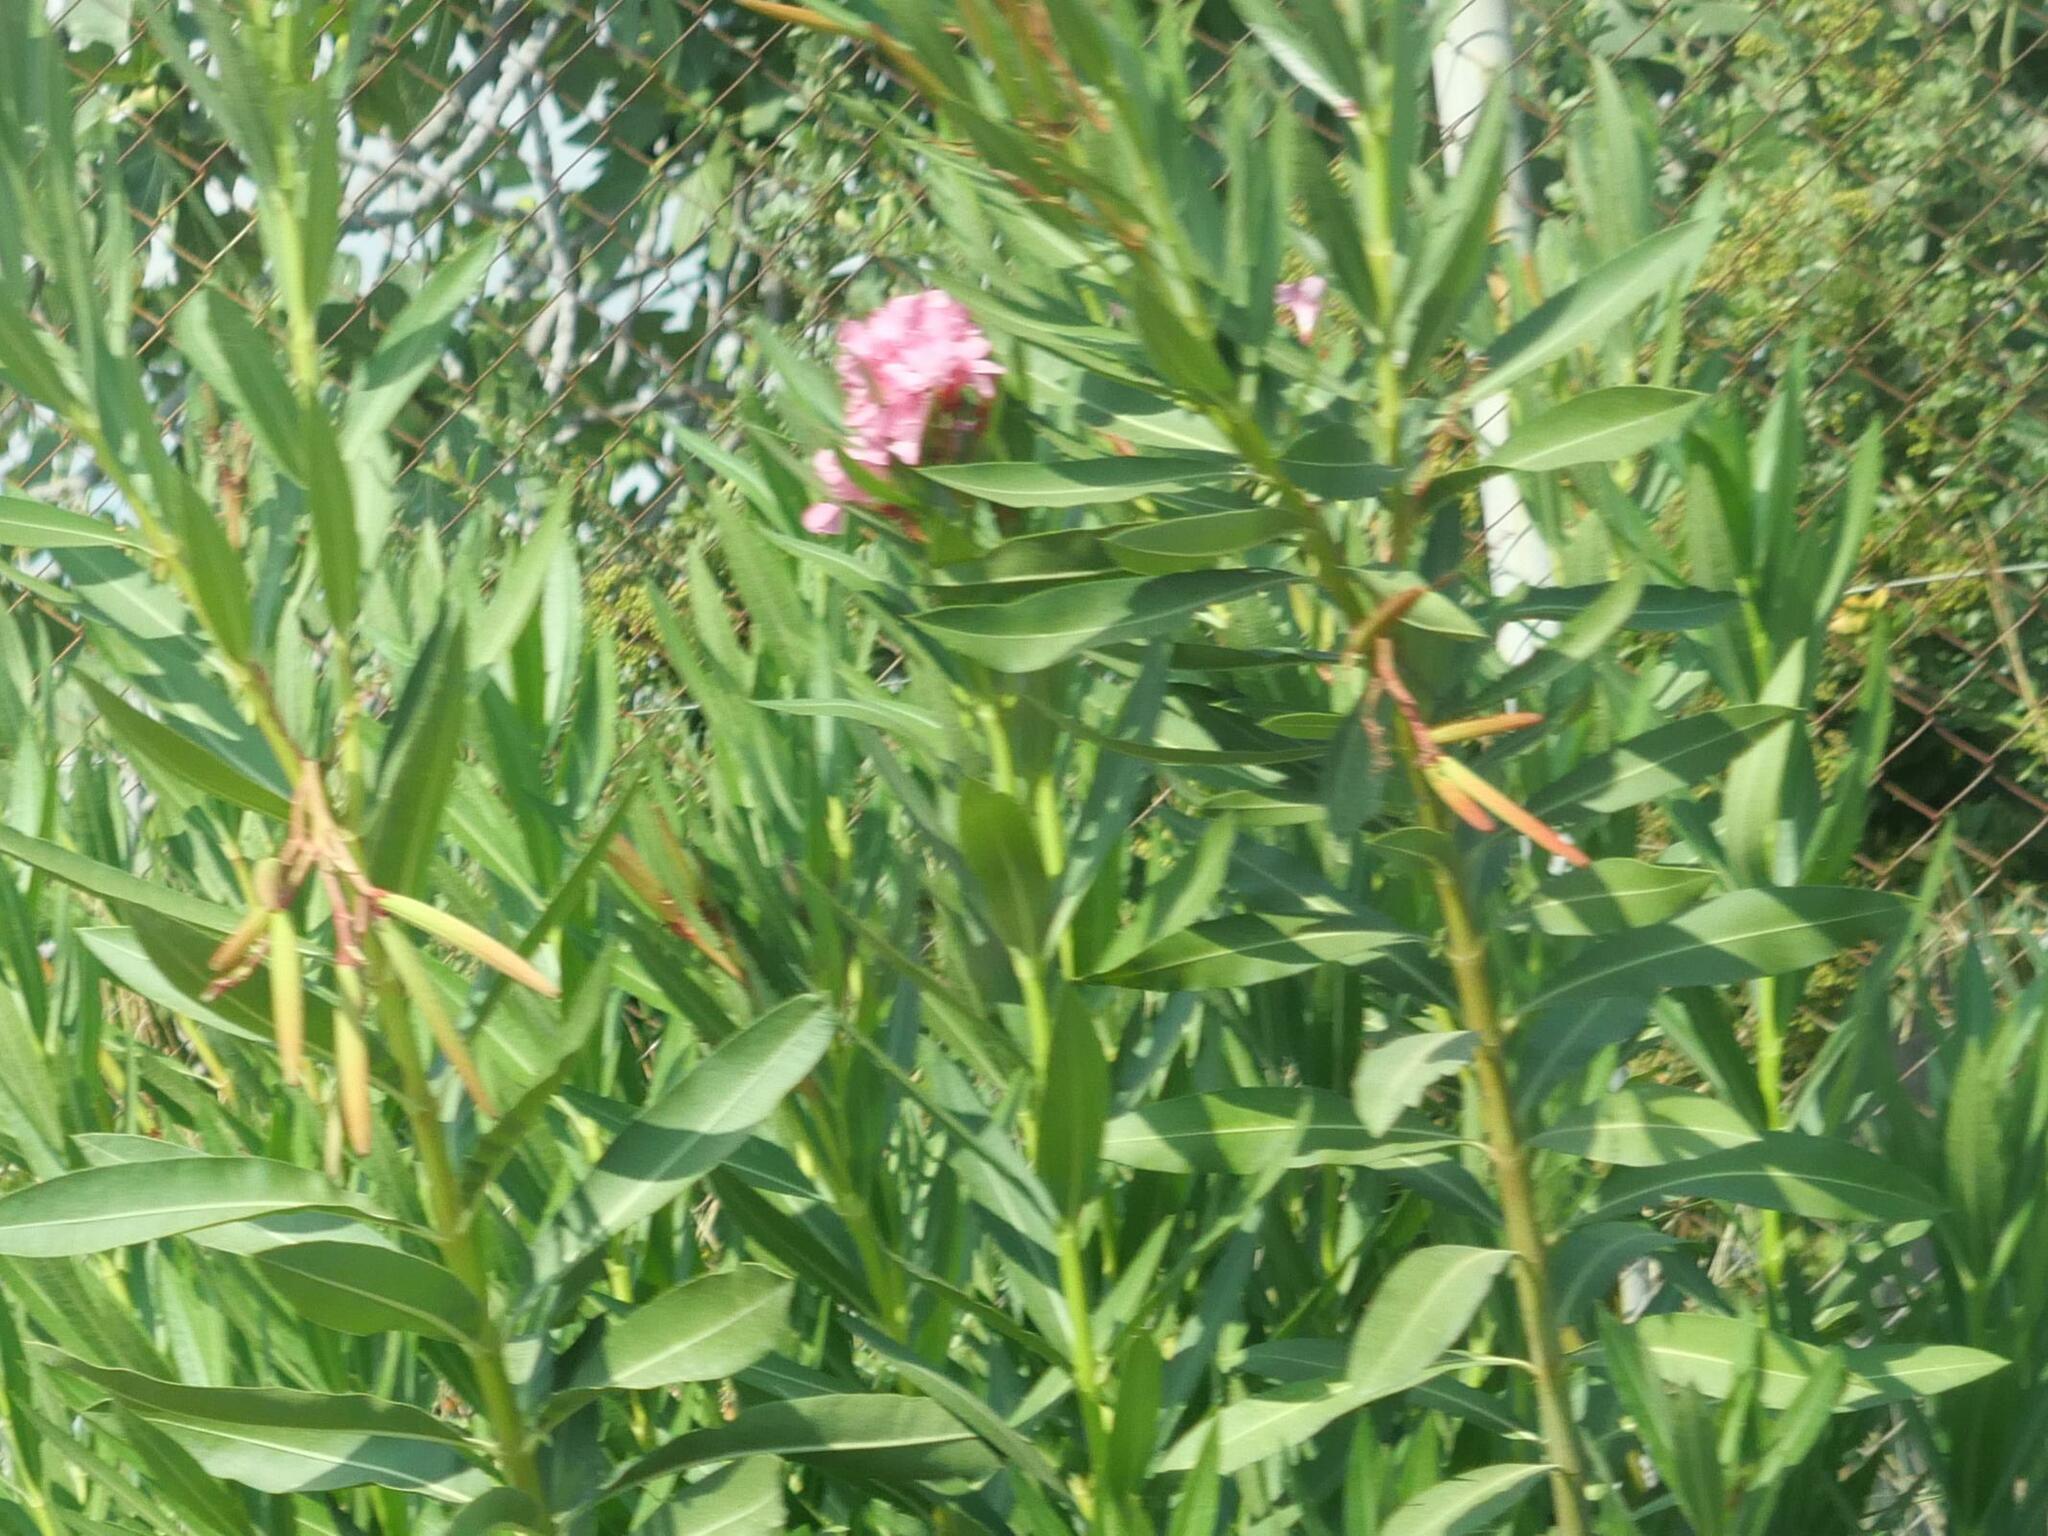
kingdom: Plantae
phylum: Tracheophyta
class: Magnoliopsida
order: Gentianales
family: Apocynaceae
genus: Nerium
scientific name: Nerium oleander
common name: Oleander
